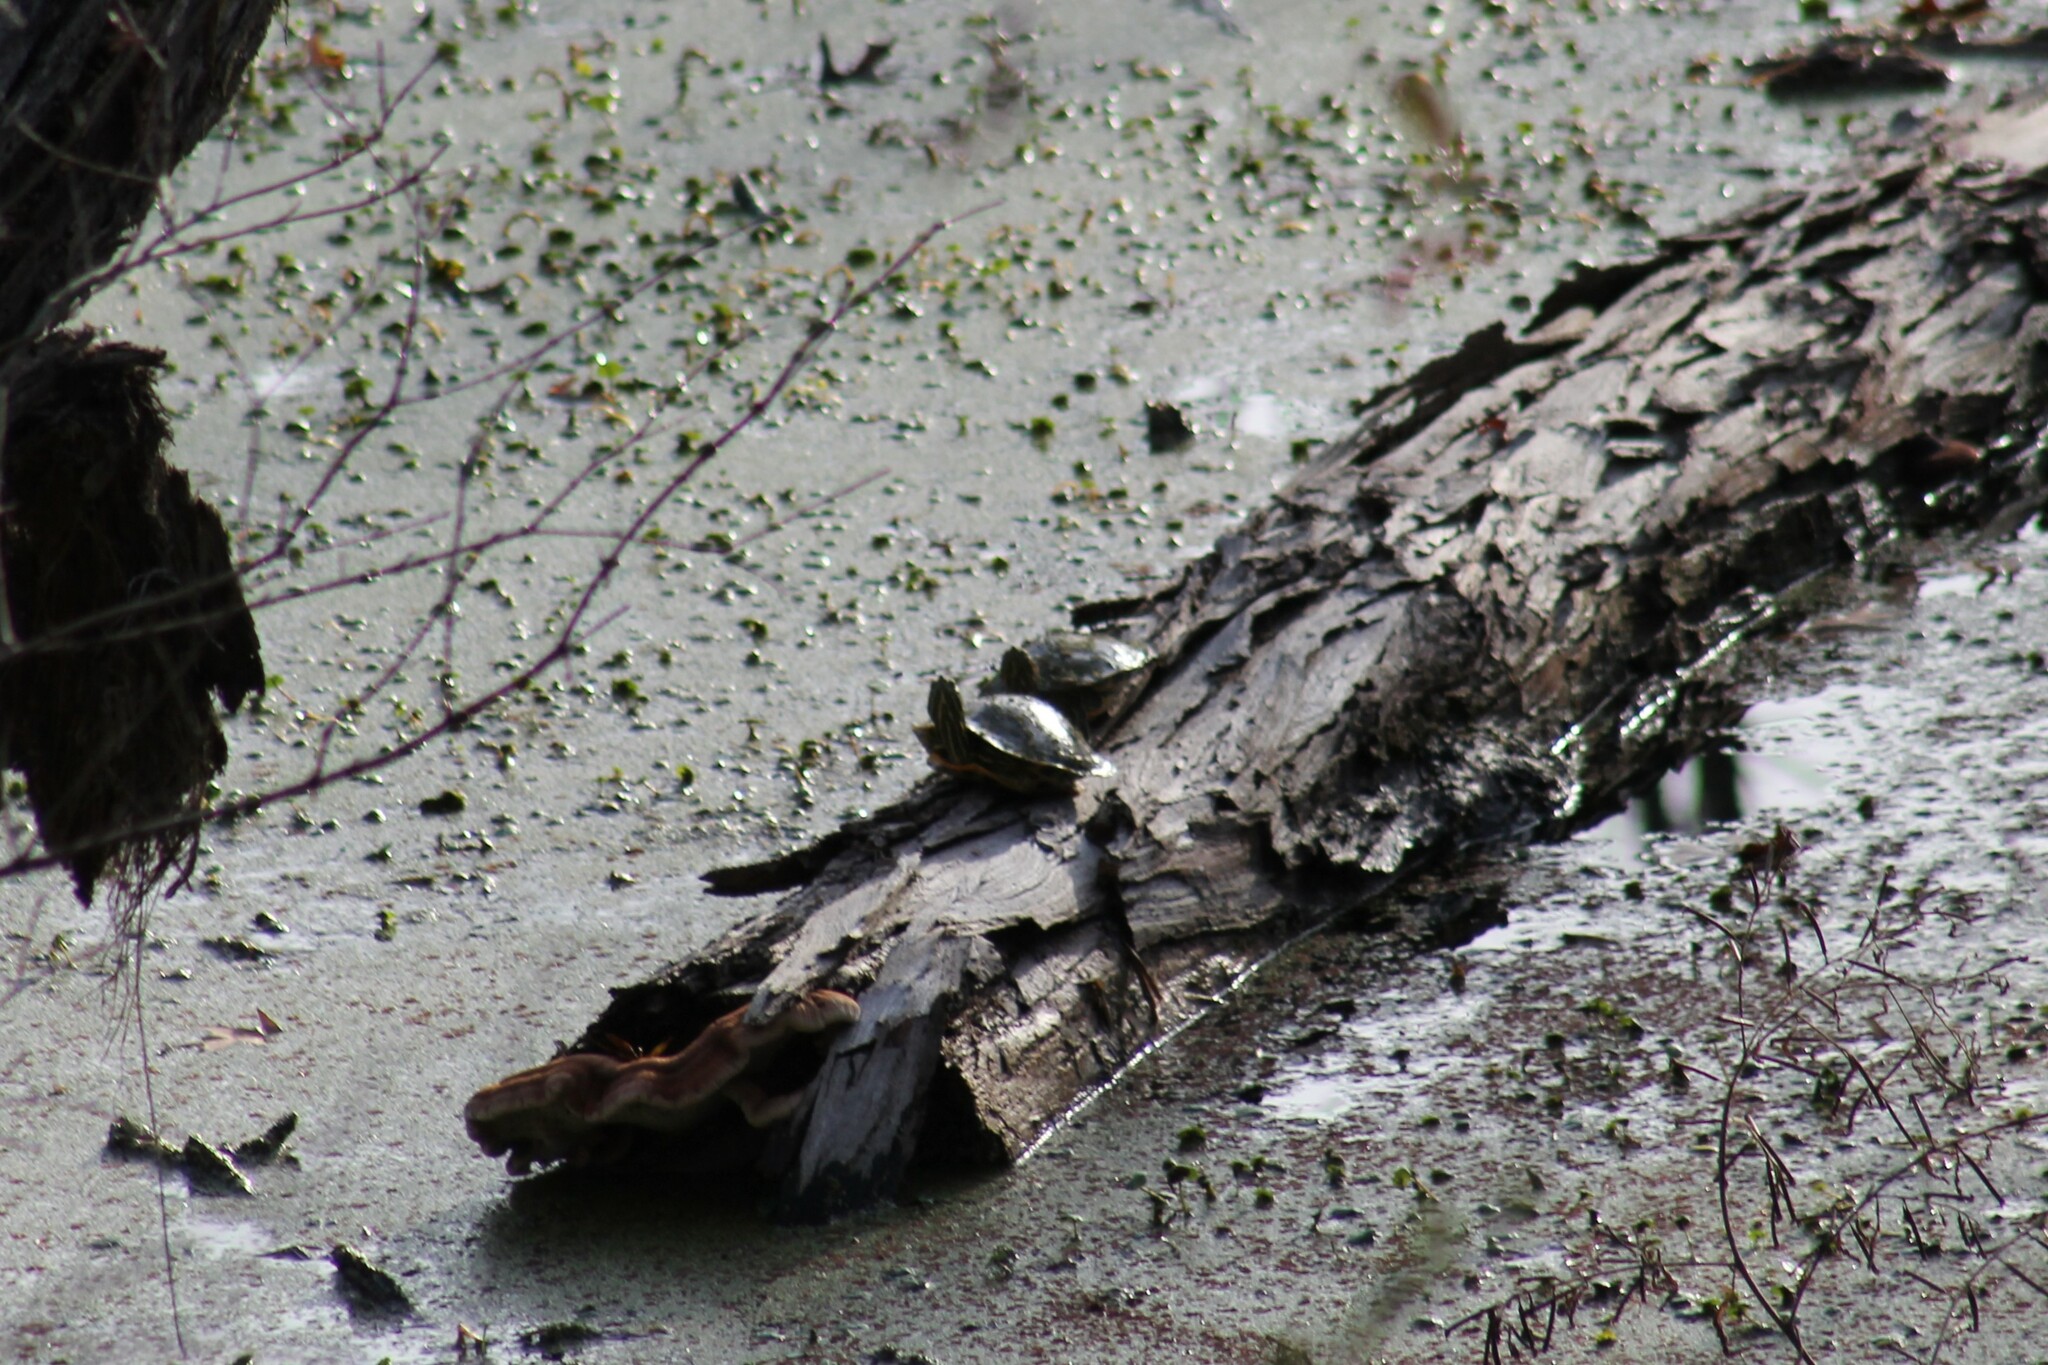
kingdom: Animalia
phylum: Chordata
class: Testudines
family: Emydidae
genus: Trachemys
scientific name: Trachemys scripta
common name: Slider
